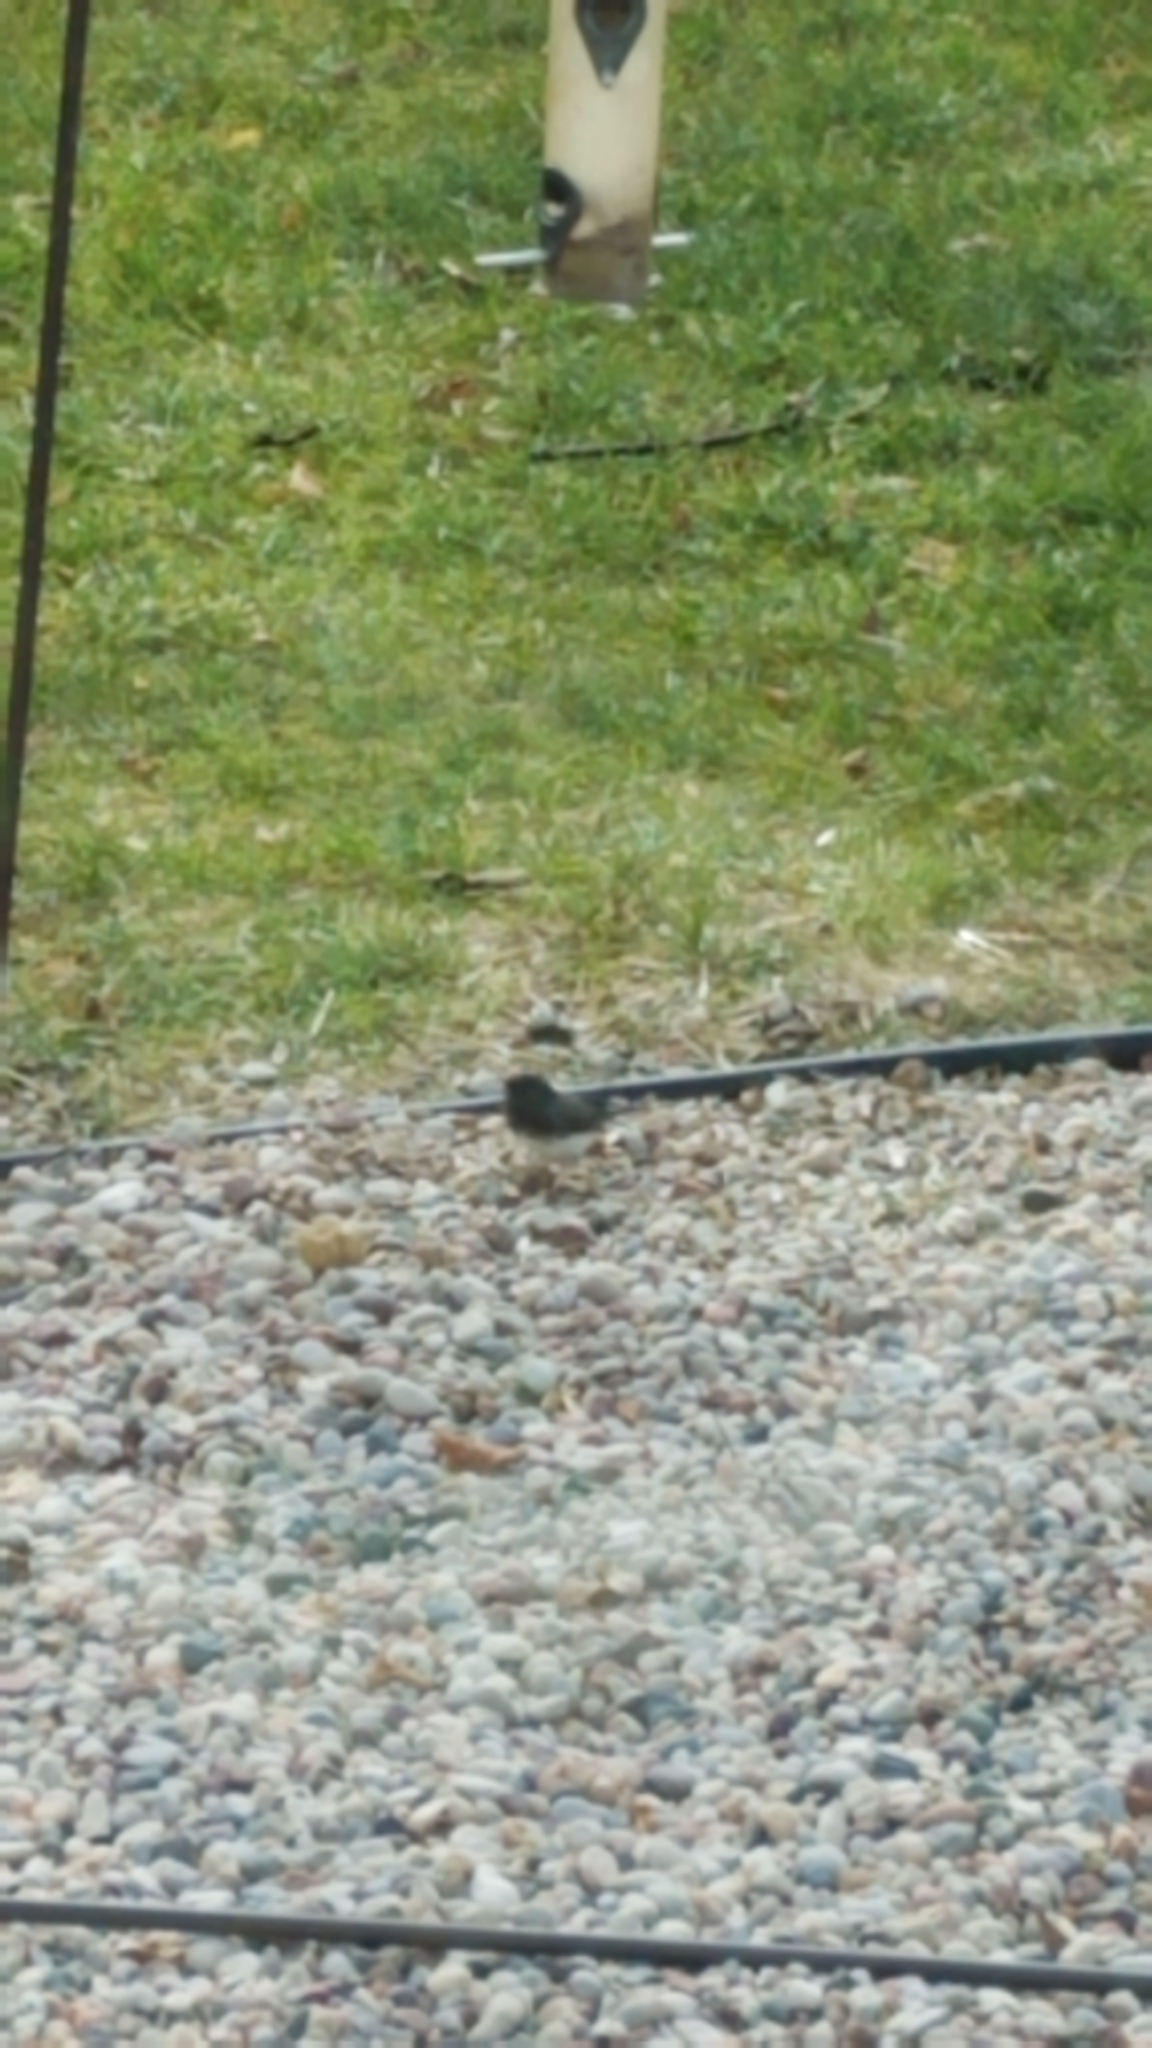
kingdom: Animalia
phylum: Chordata
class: Aves
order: Passeriformes
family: Passerellidae
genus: Junco
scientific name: Junco hyemalis
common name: Dark-eyed junco
